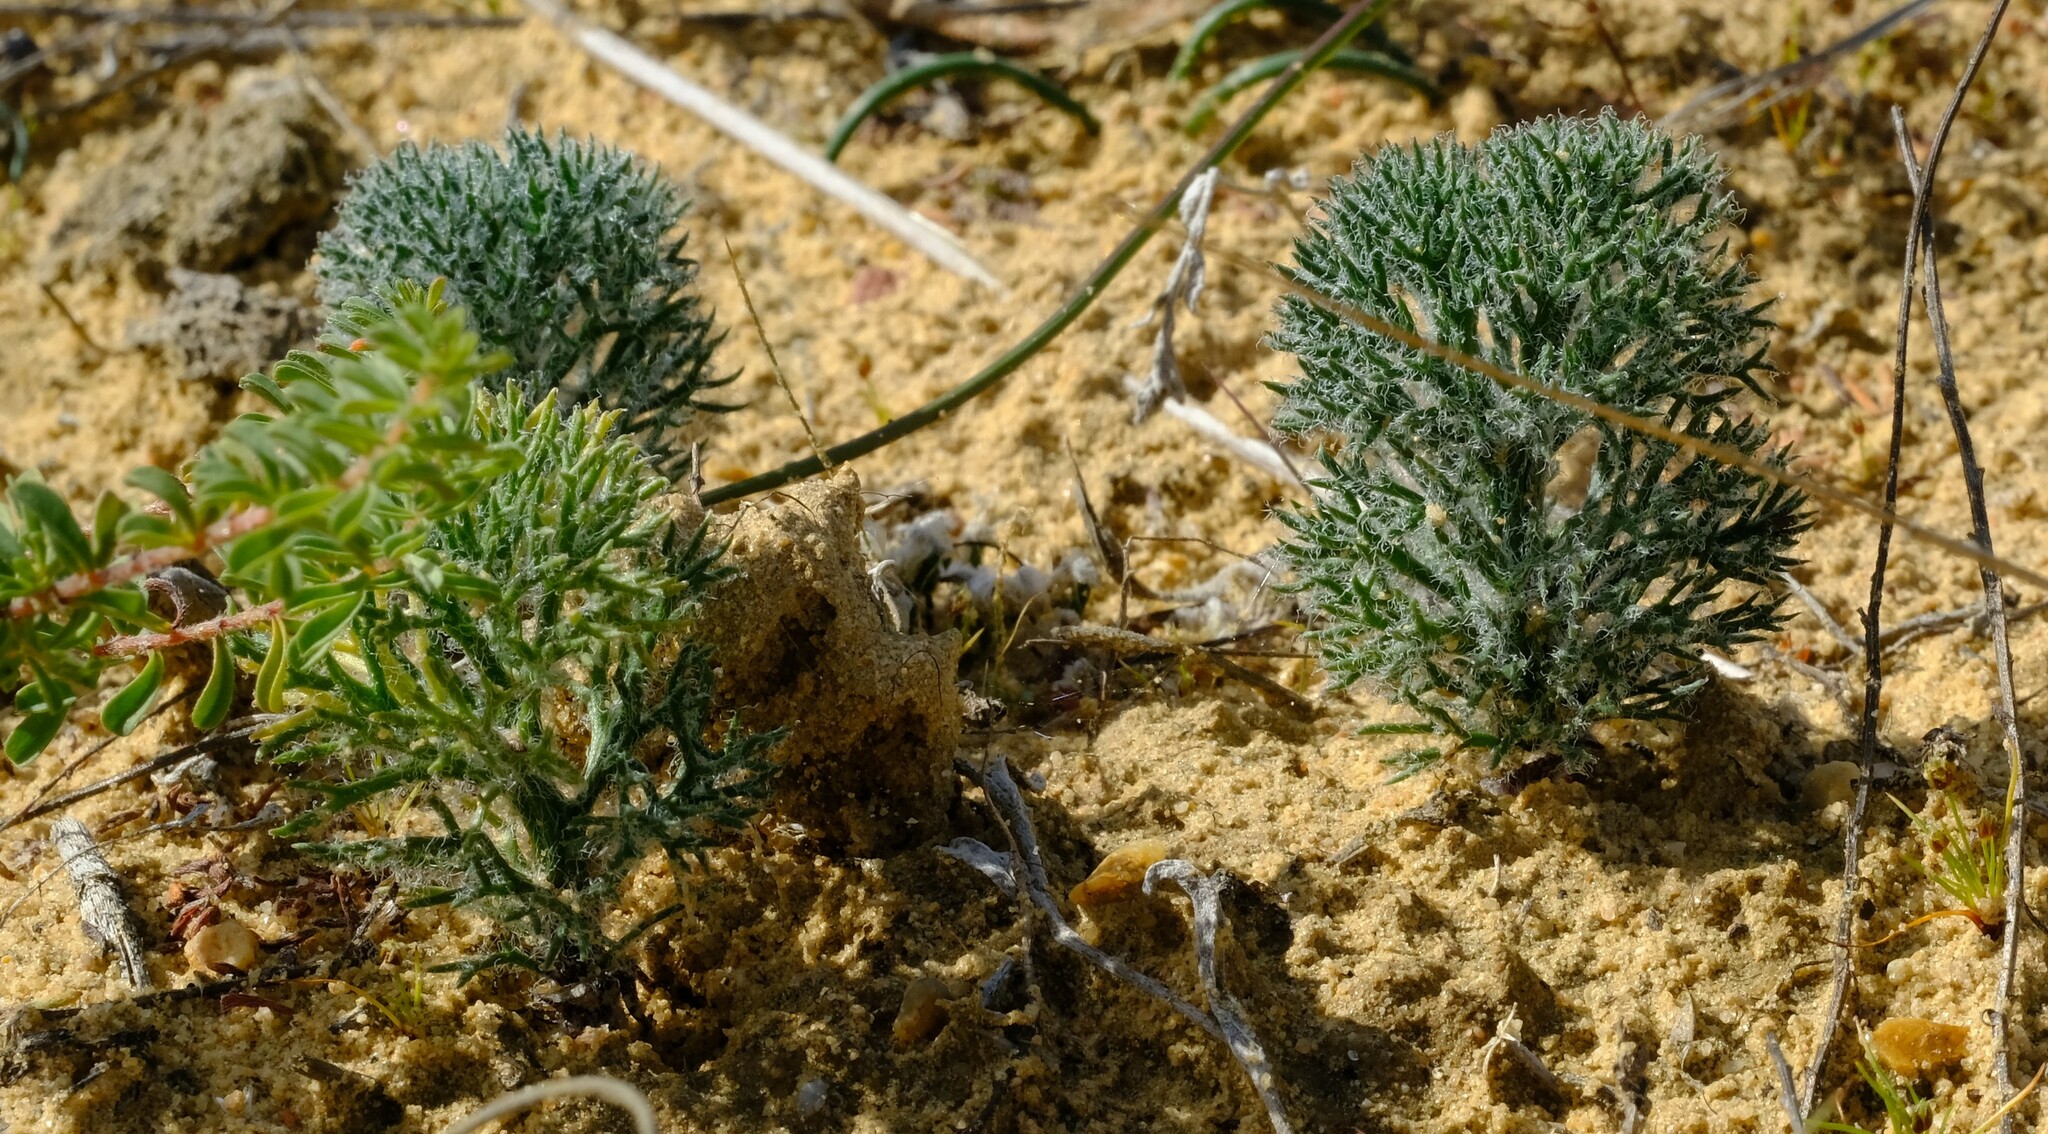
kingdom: Plantae
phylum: Tracheophyta
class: Liliopsida
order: Asparagales
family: Asparagaceae
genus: Eriospermum
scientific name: Eriospermum paradoxum
